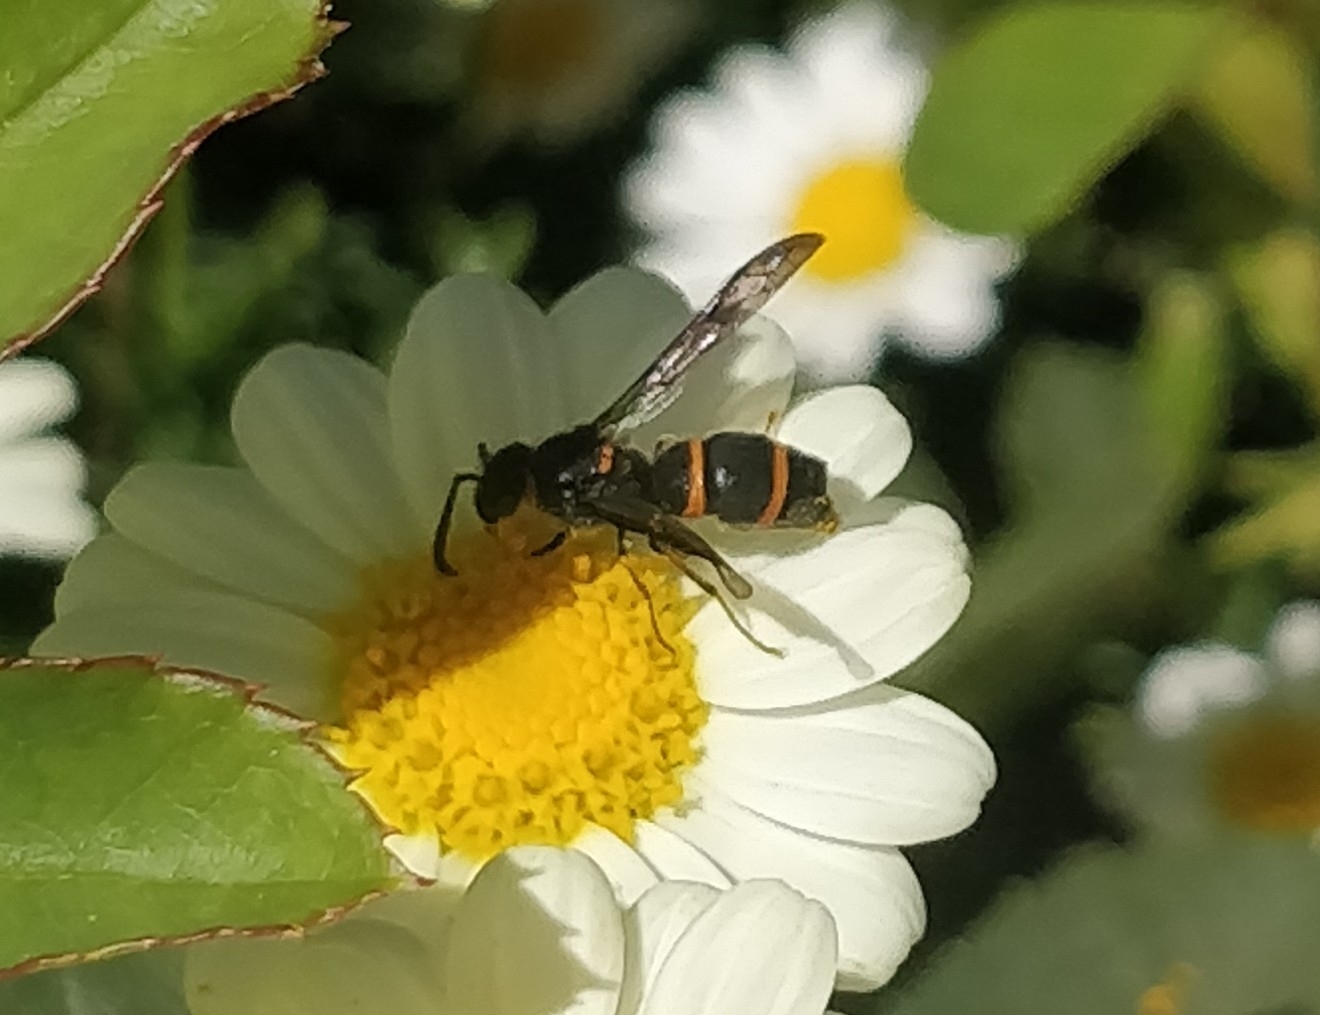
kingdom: Animalia
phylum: Arthropoda
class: Insecta
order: Hymenoptera
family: Vespidae
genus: Ancistrocerus
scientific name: Ancistrocerus haematodes
